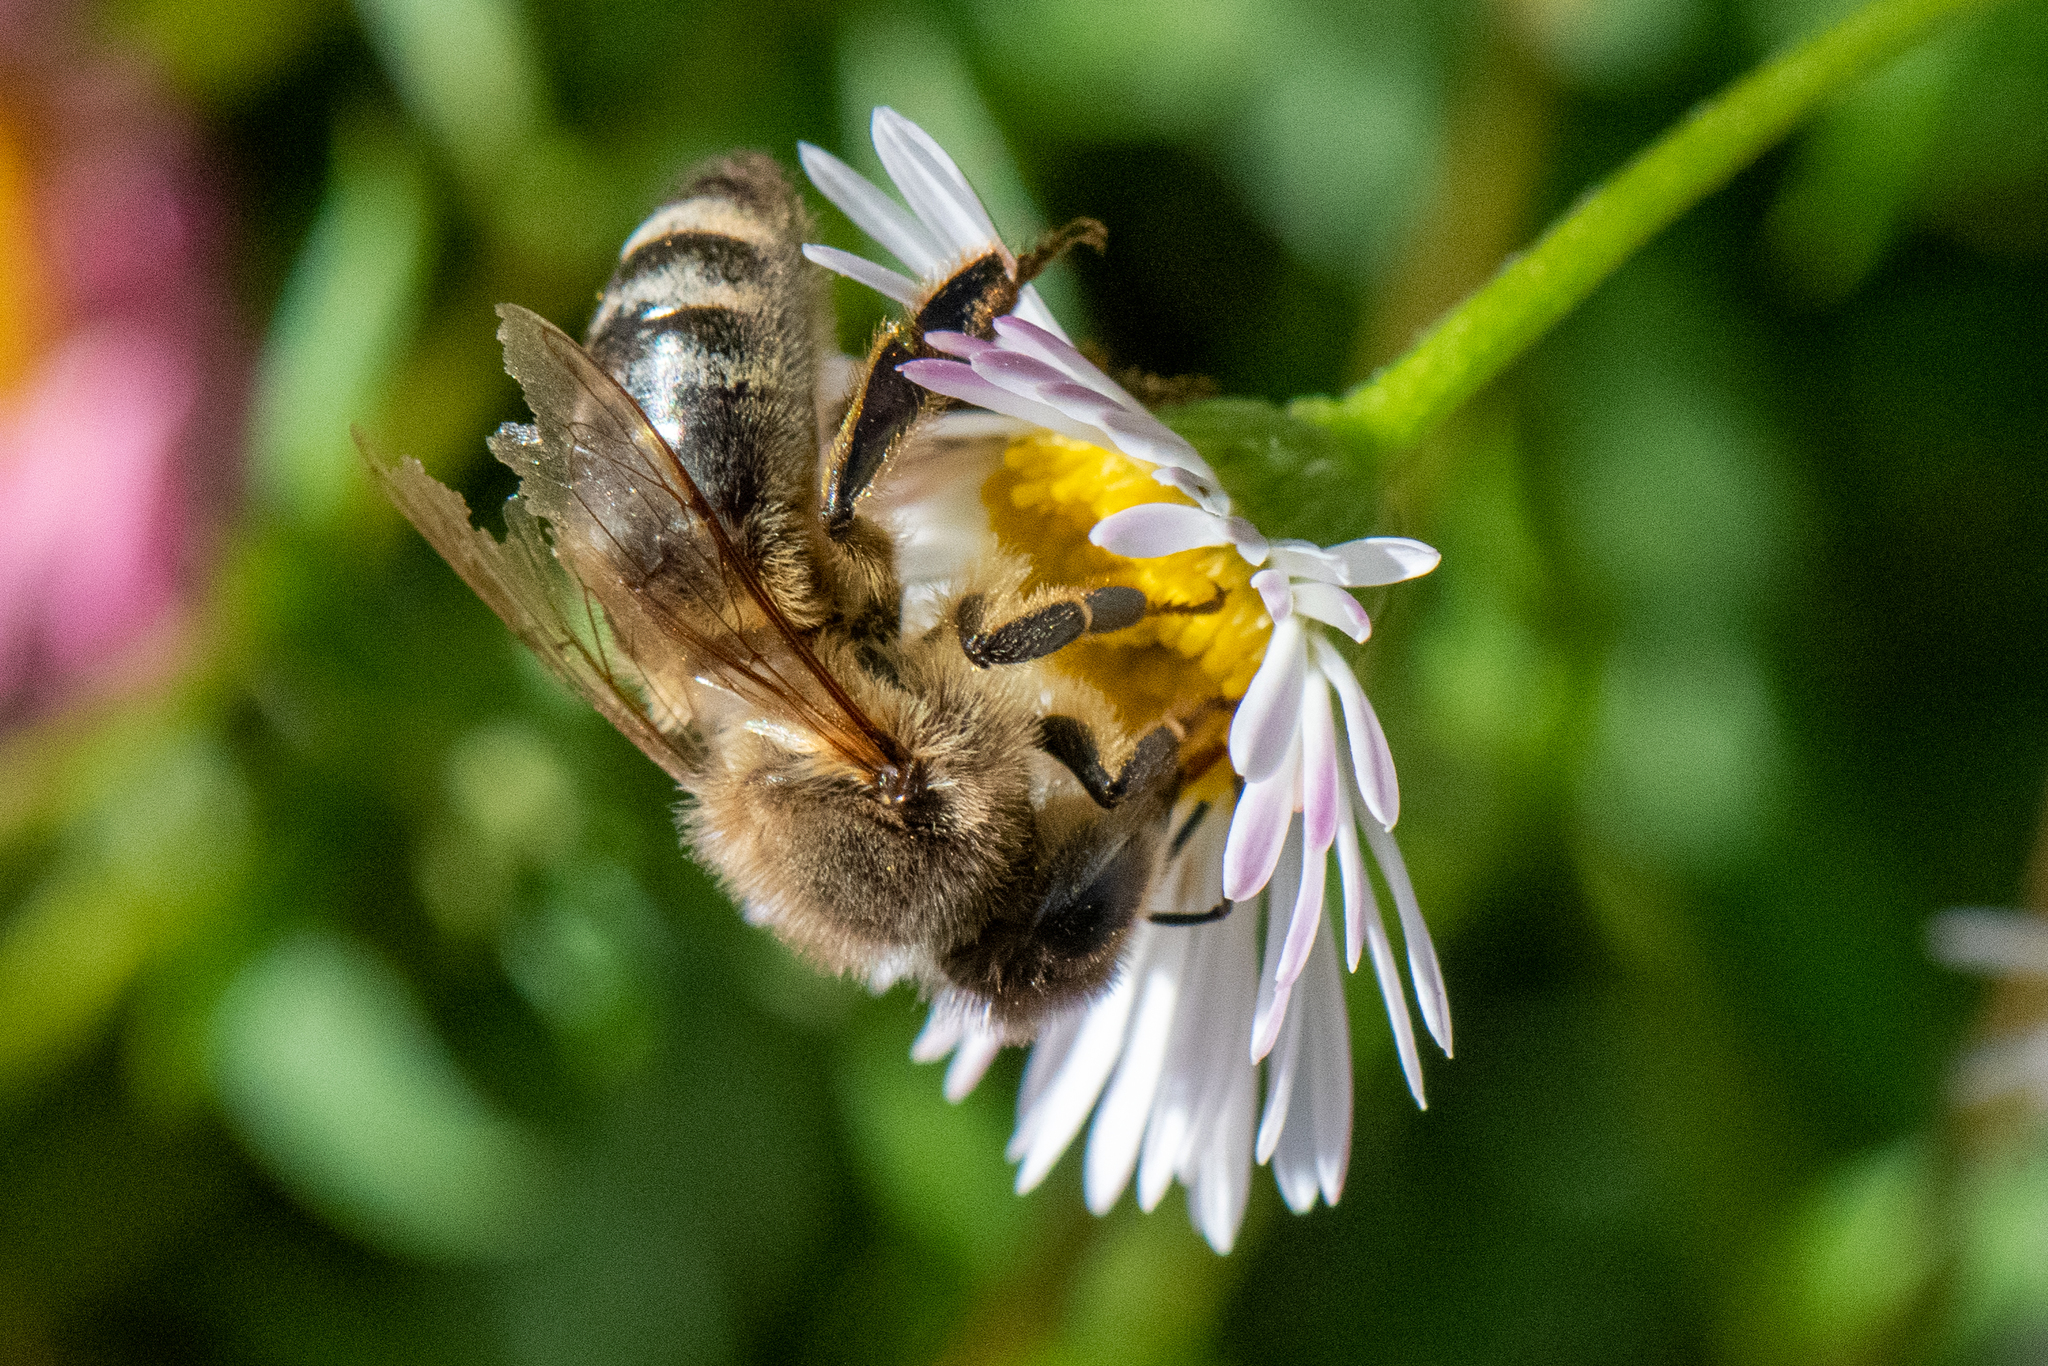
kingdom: Animalia
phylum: Arthropoda
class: Insecta
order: Hymenoptera
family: Apidae
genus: Apis
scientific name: Apis mellifera
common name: Honey bee
